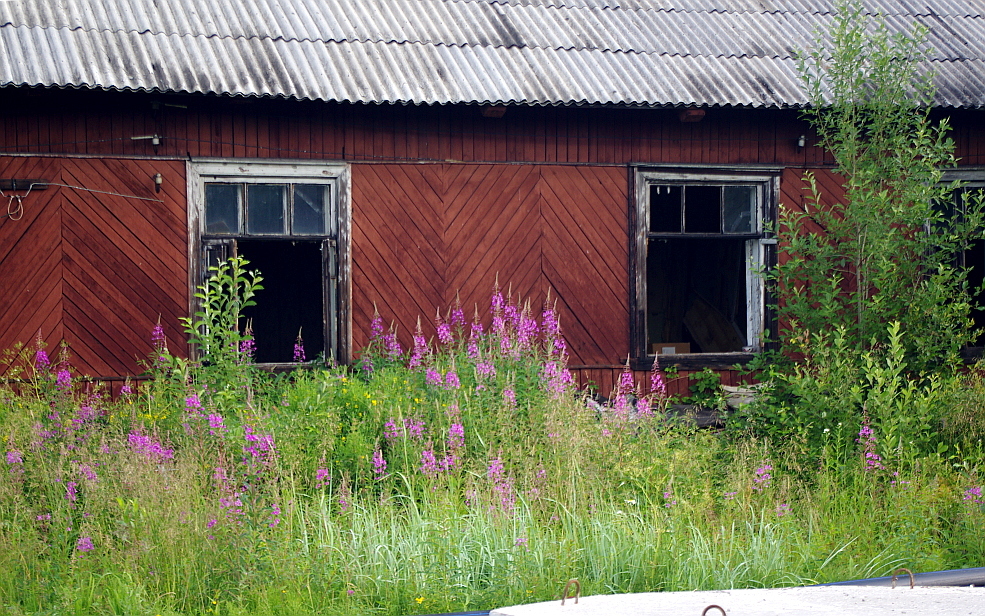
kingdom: Plantae
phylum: Tracheophyta
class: Magnoliopsida
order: Myrtales
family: Onagraceae
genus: Chamaenerion
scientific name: Chamaenerion angustifolium
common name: Fireweed
